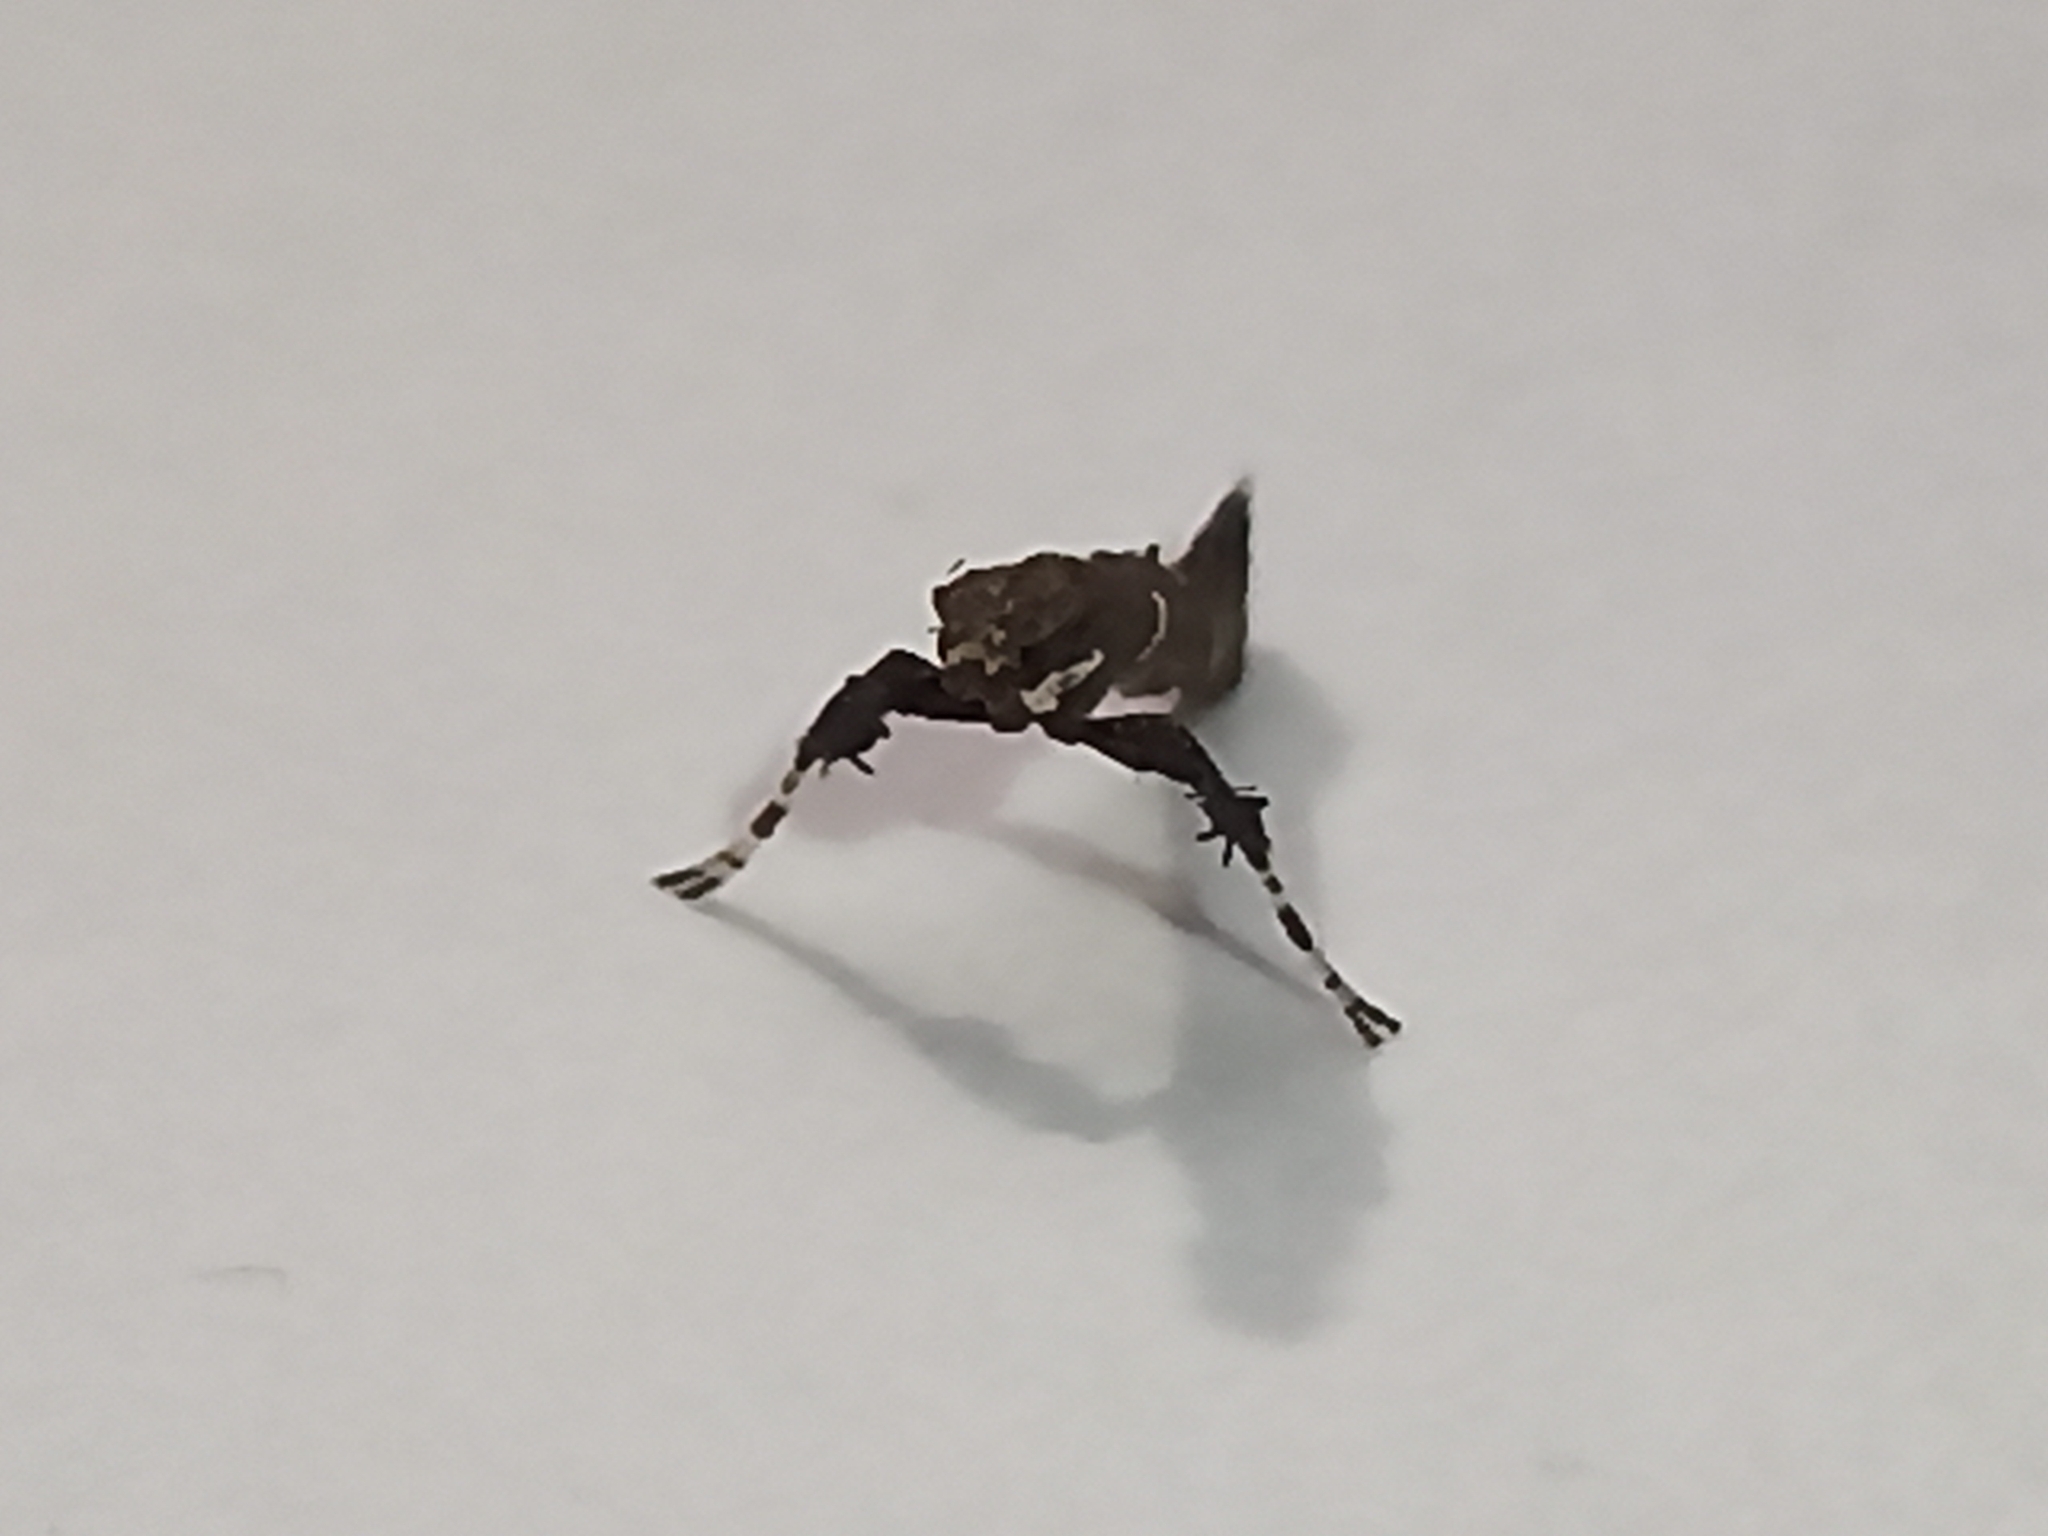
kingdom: Animalia
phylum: Arthropoda
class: Insecta
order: Lepidoptera
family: Gracillariidae
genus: Caloptilia
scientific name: Caloptilia triadicae
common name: Tallow leaf roller
